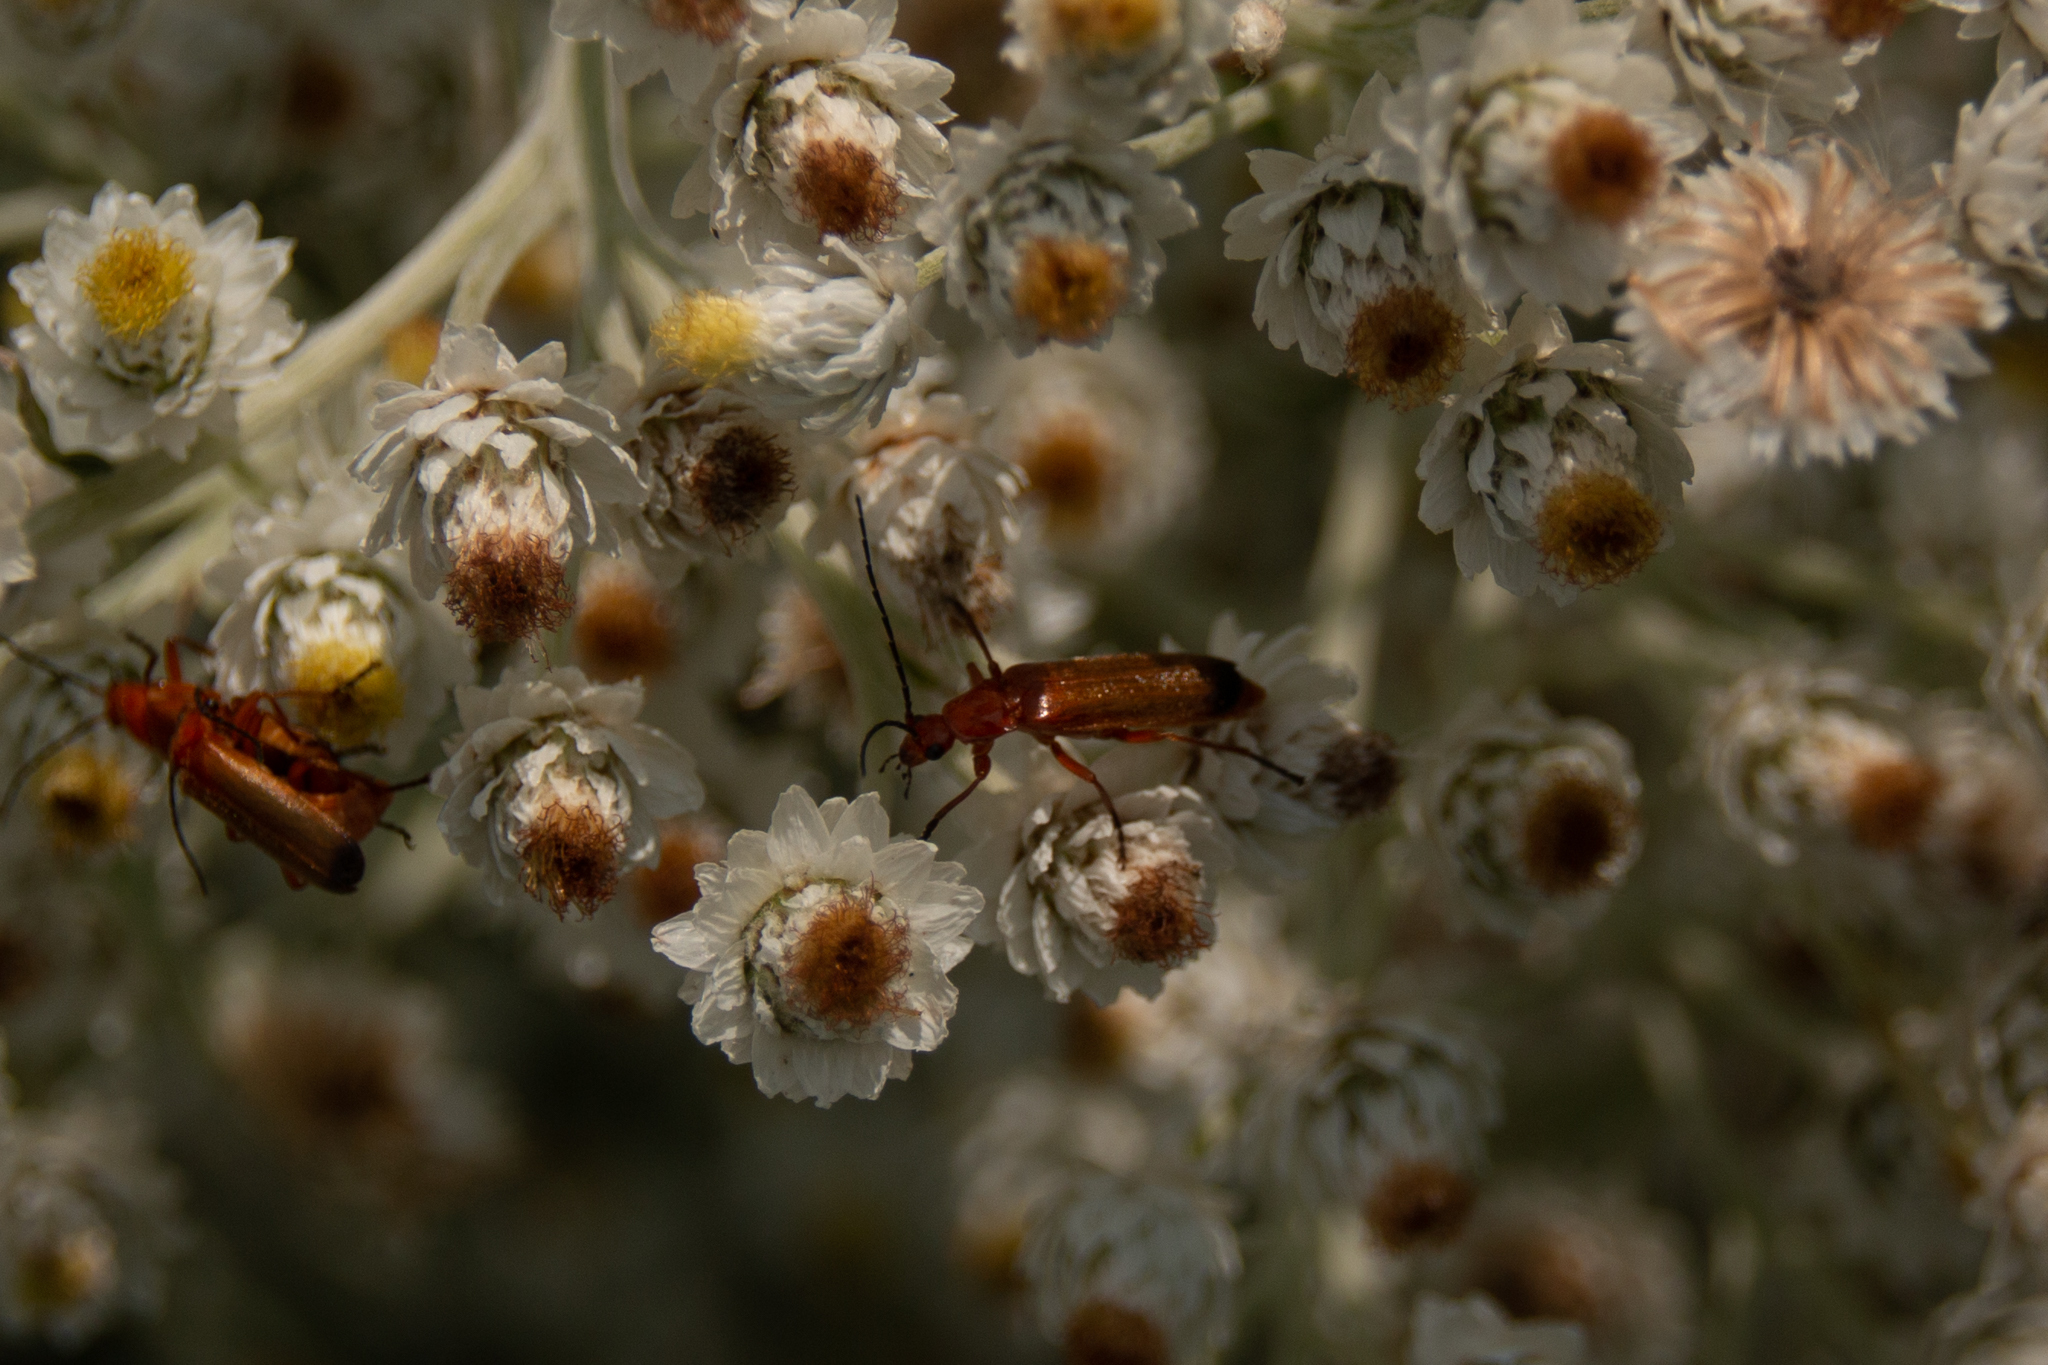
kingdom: Animalia
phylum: Arthropoda
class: Insecta
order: Coleoptera
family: Cantharidae
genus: Rhagonycha
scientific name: Rhagonycha fulva
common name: Common red soldier beetle
